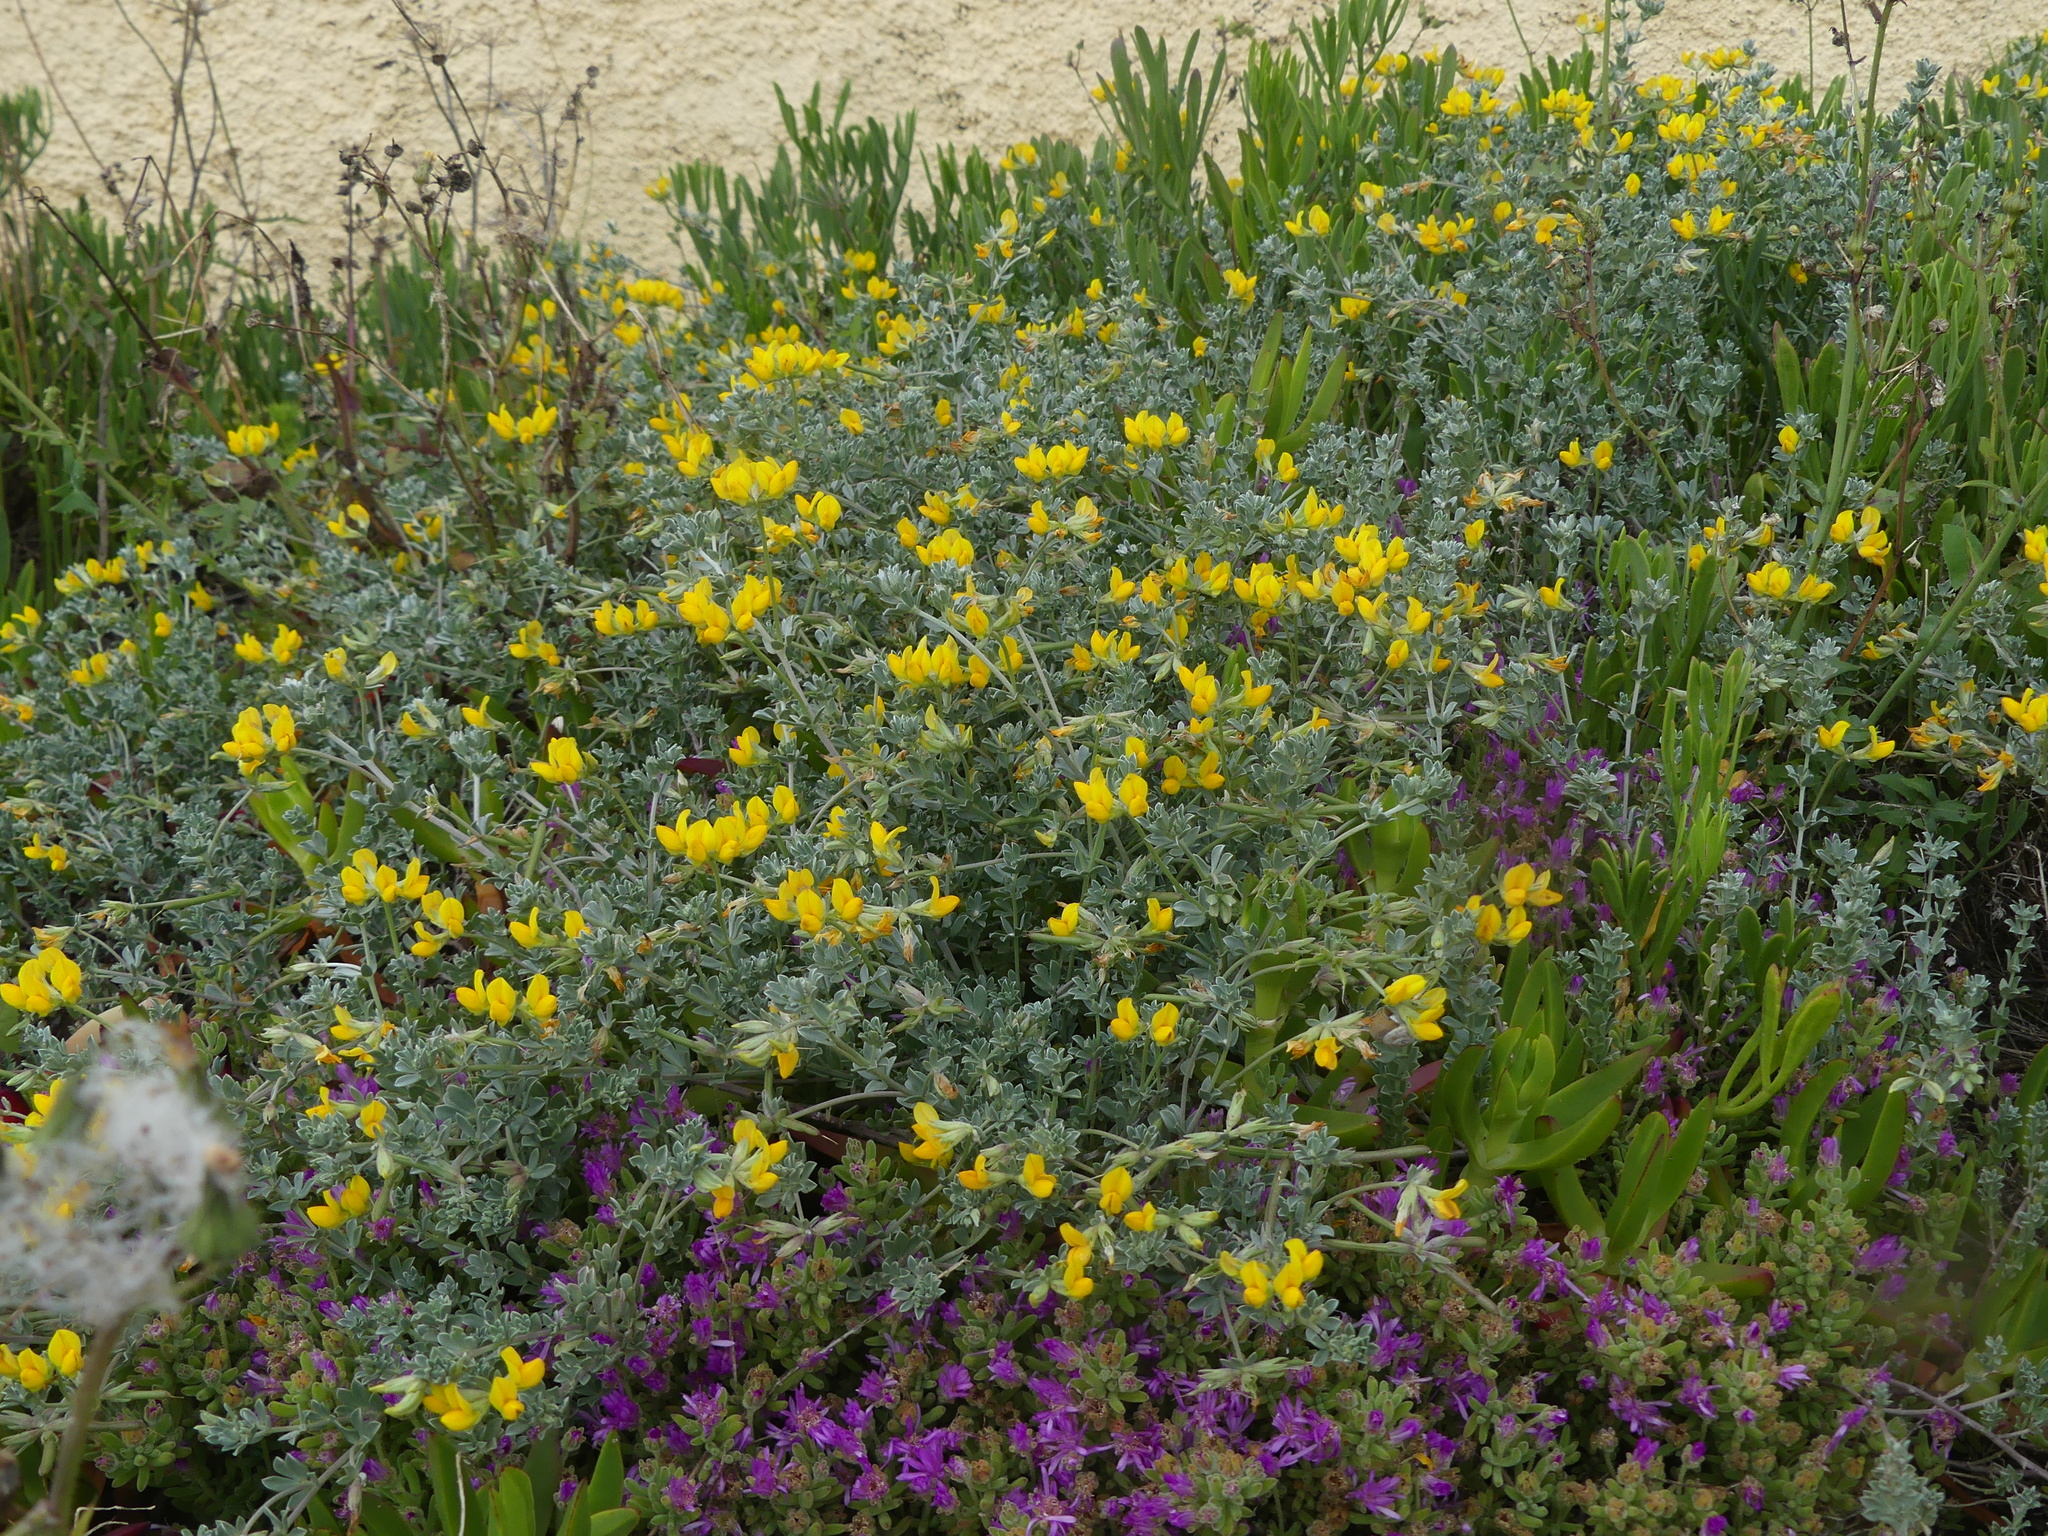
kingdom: Plantae
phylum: Tracheophyta
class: Magnoliopsida
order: Fabales
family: Fabaceae
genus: Lotus
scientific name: Lotus creticus
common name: Cretan bird's-foot trefoil
